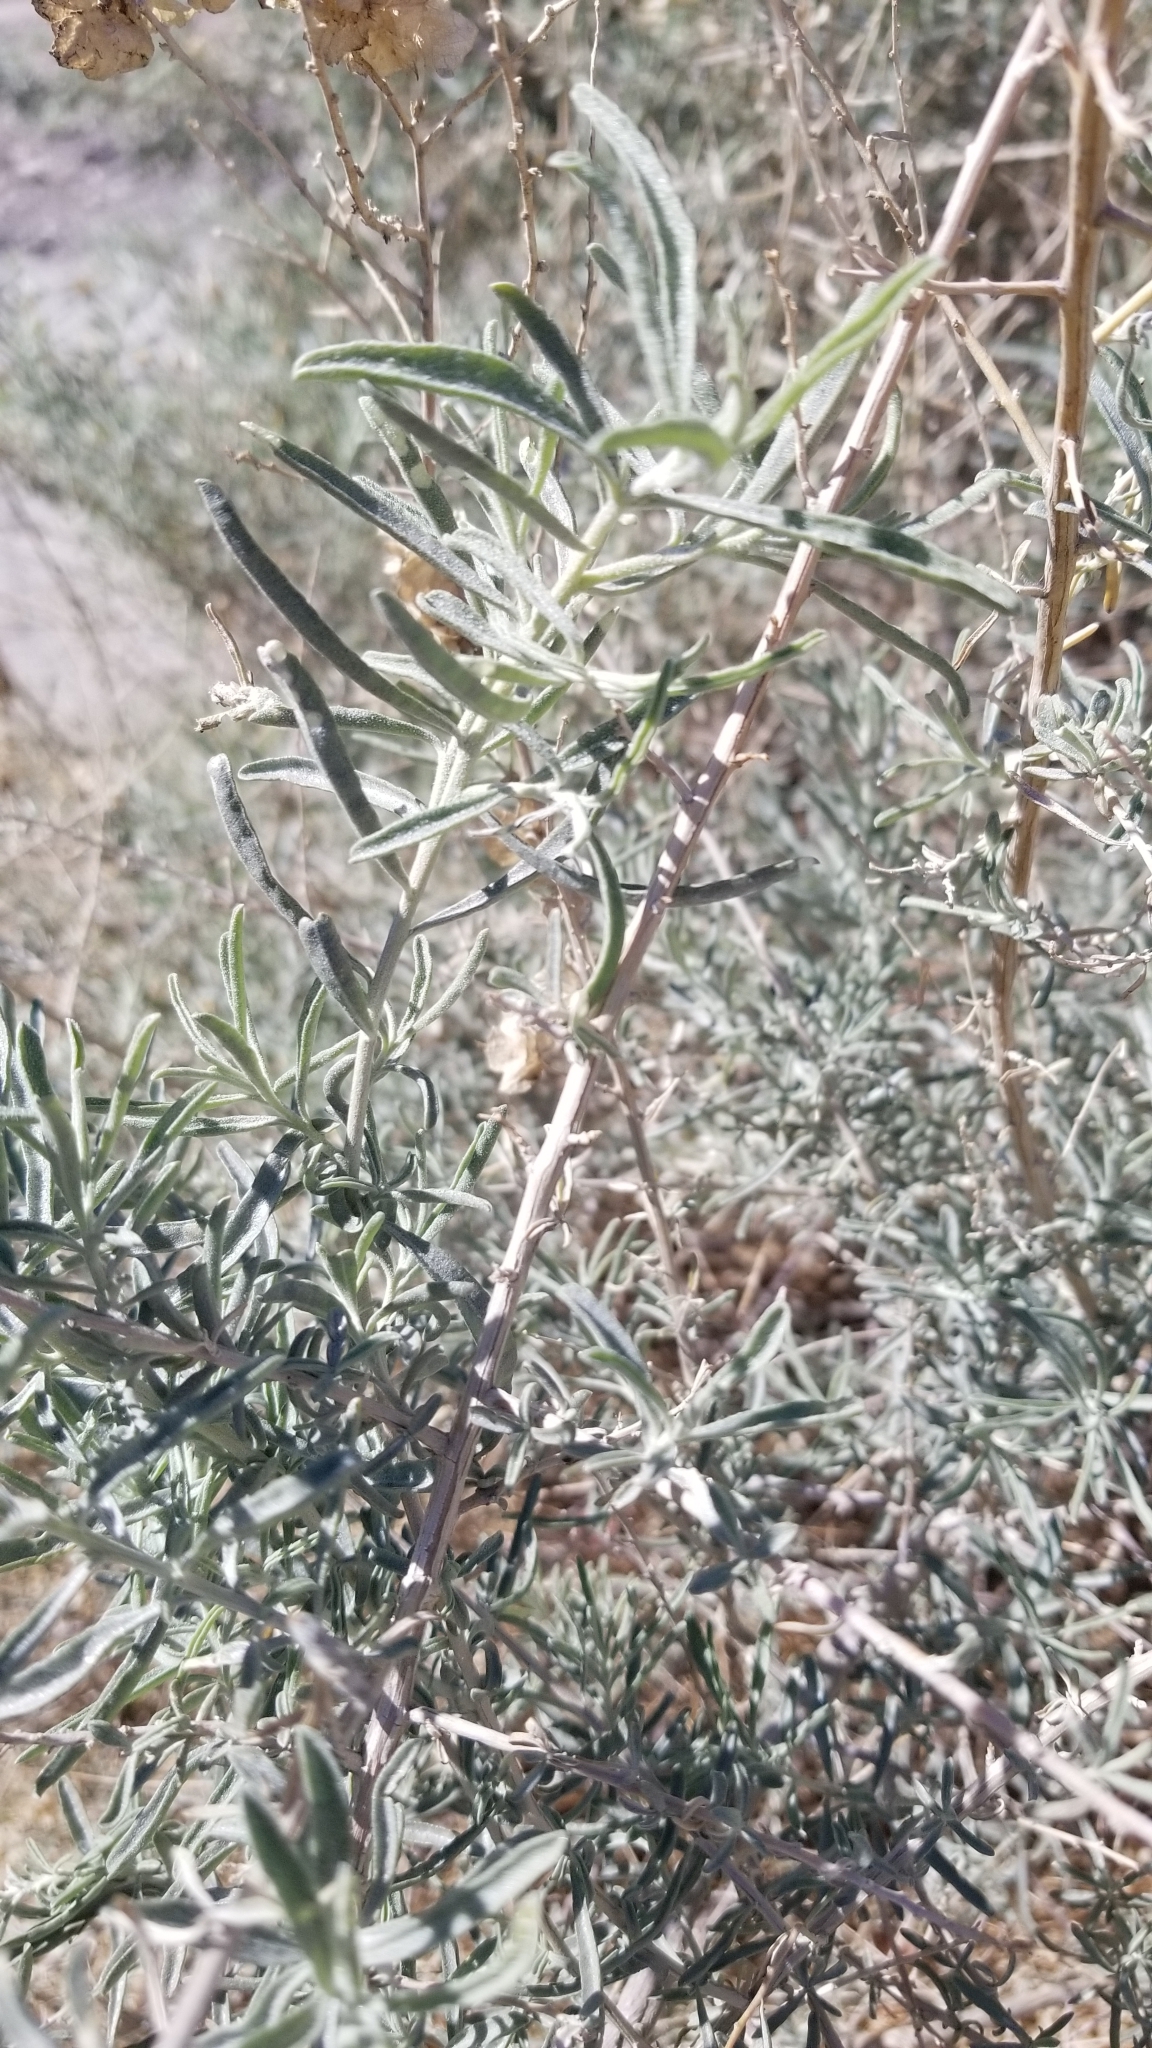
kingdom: Plantae
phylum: Tracheophyta
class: Magnoliopsida
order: Caryophyllales
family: Amaranthaceae
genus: Atriplex
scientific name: Atriplex canescens
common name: Four-wing saltbush
